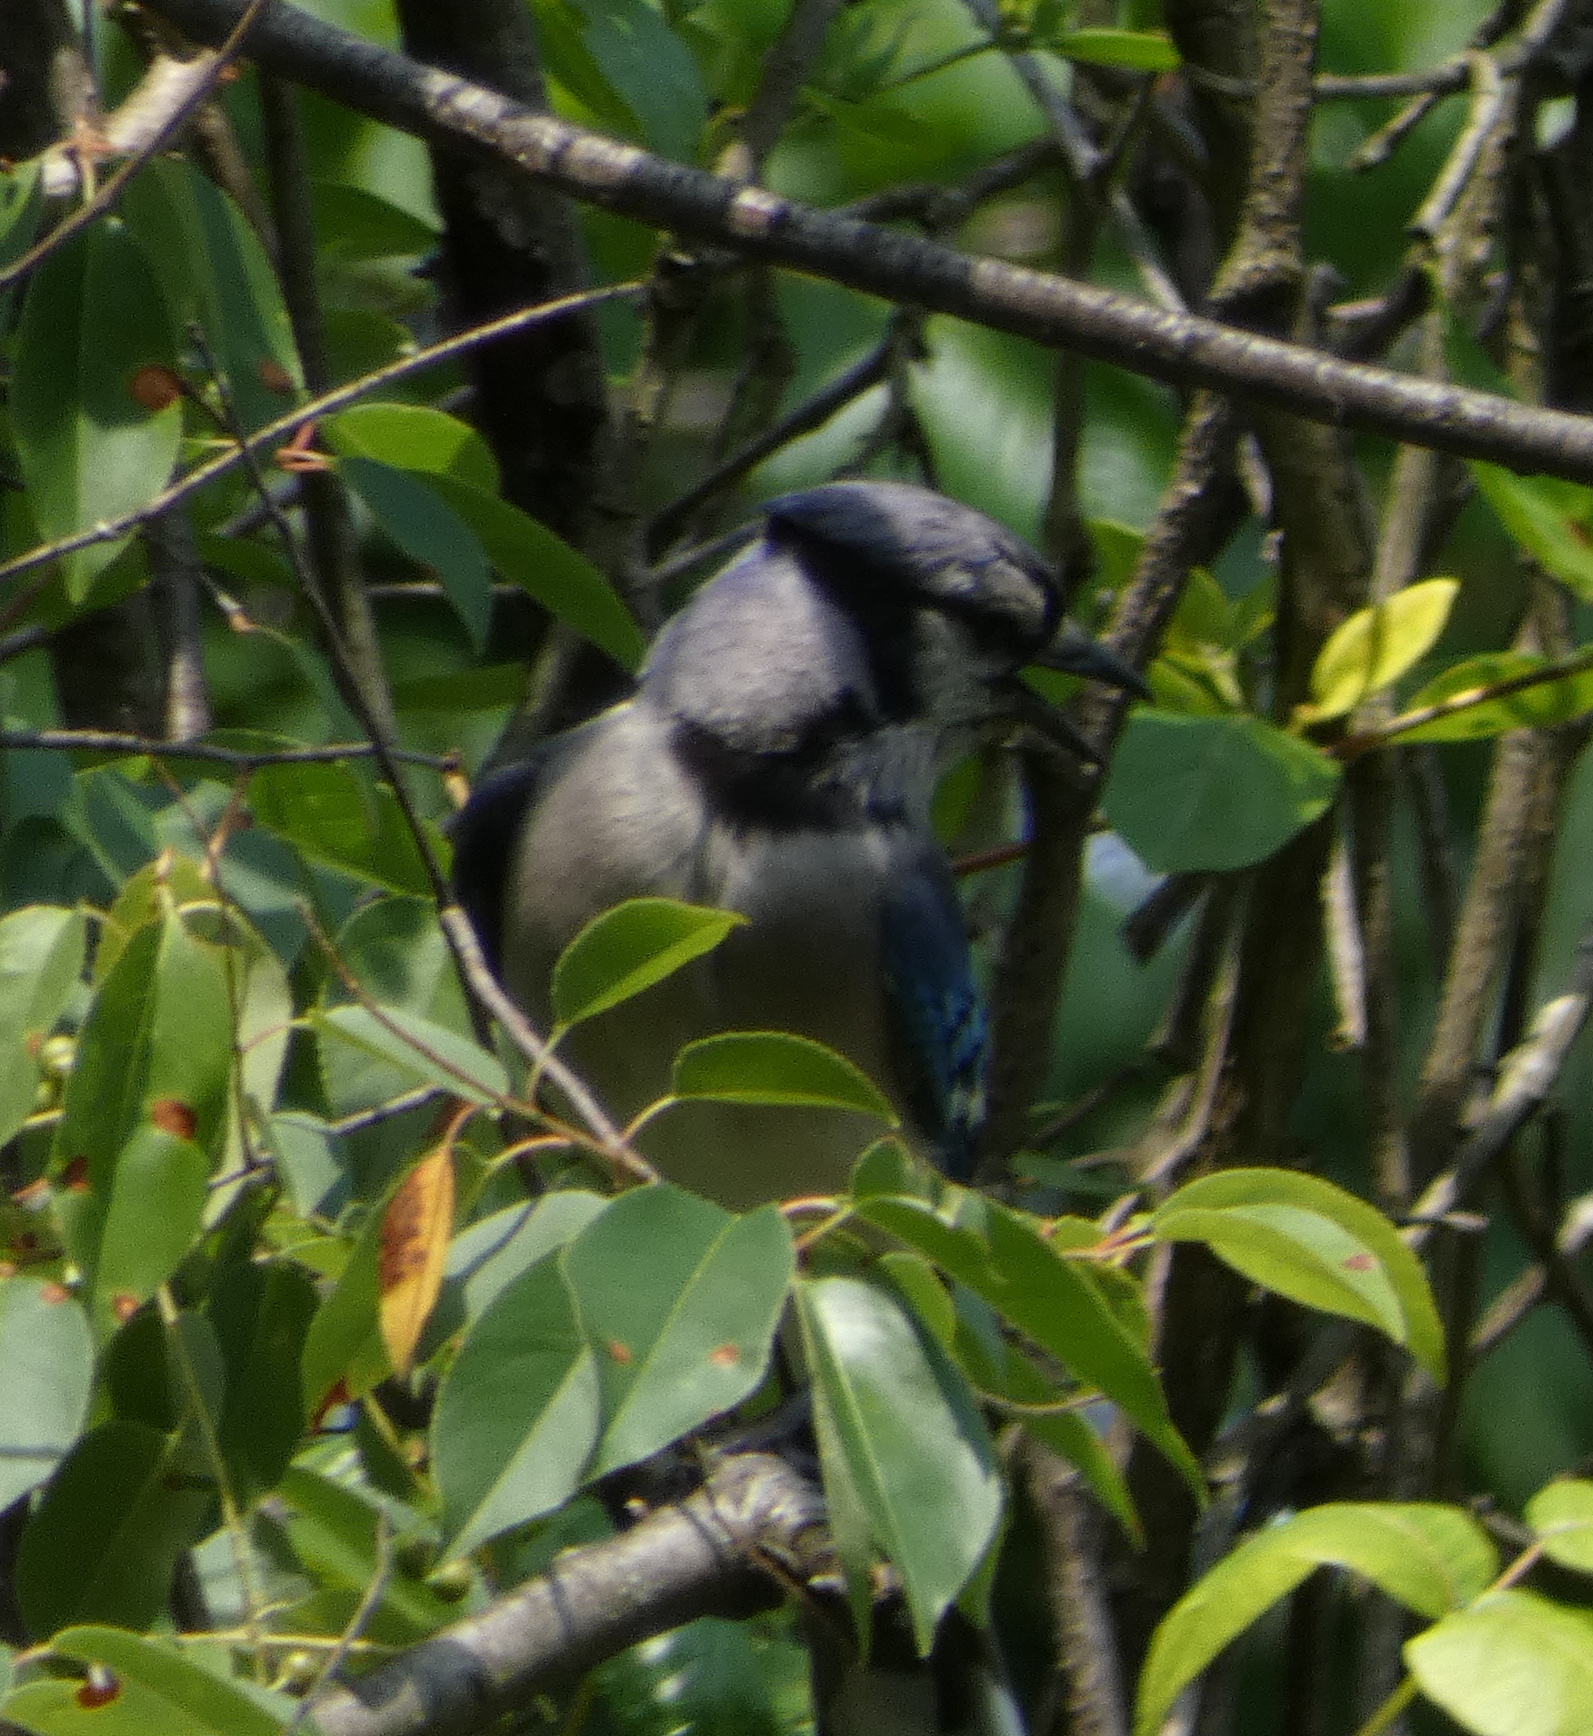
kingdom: Animalia
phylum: Chordata
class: Aves
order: Passeriformes
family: Corvidae
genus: Cyanocitta
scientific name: Cyanocitta cristata
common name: Blue jay
